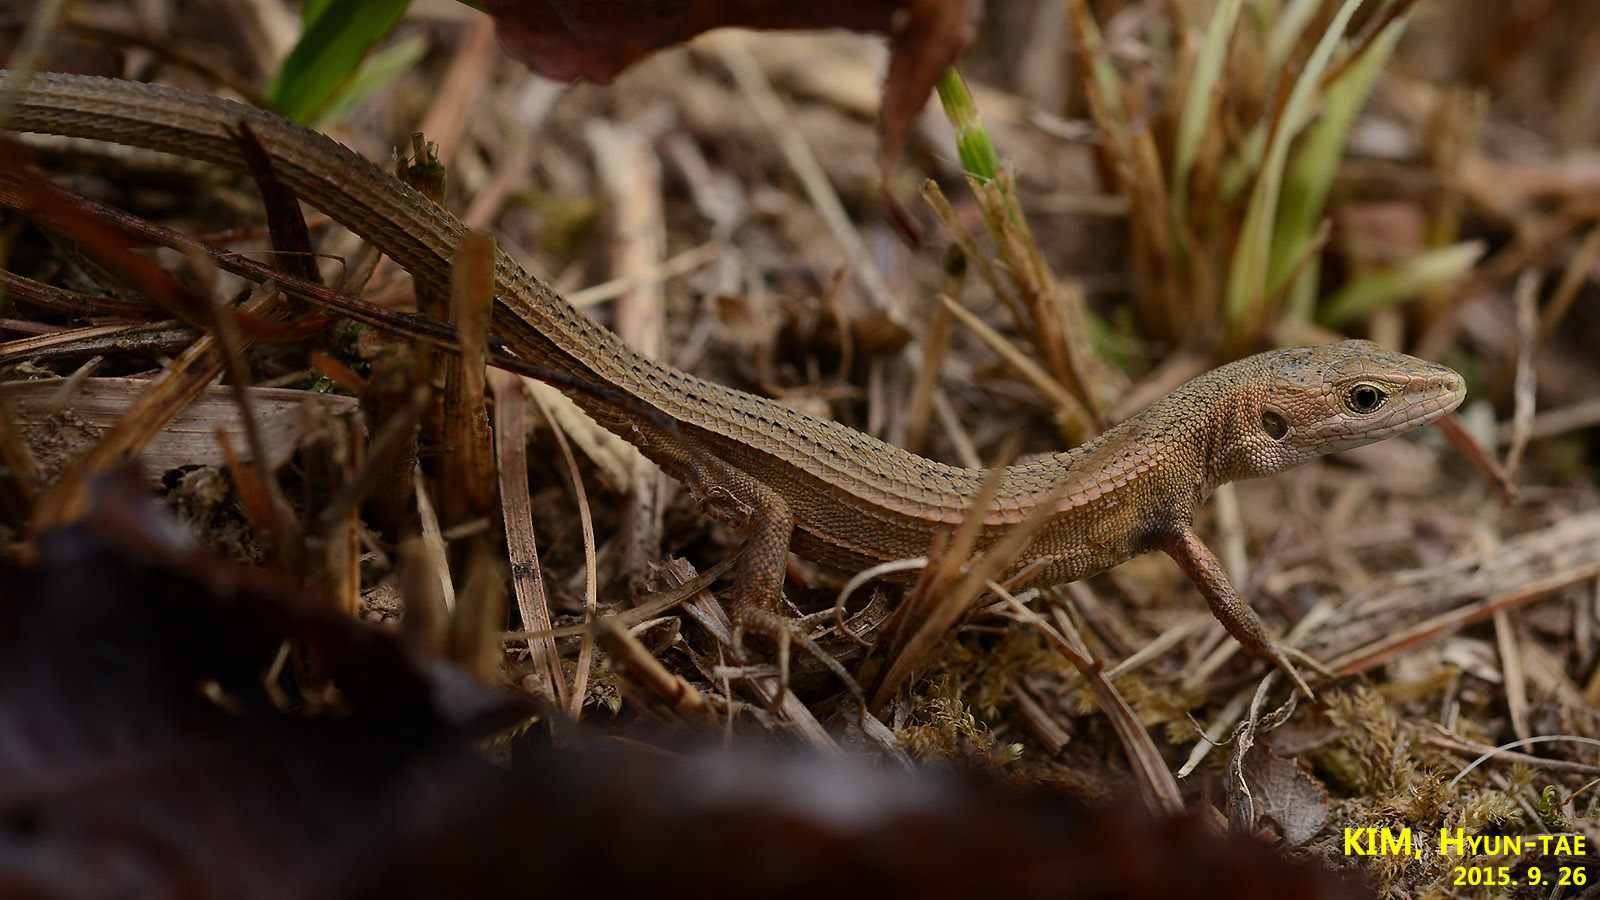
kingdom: Animalia
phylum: Chordata
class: Squamata
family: Lacertidae
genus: Takydromus
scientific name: Takydromus wolteri
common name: Mountain grass lizard
